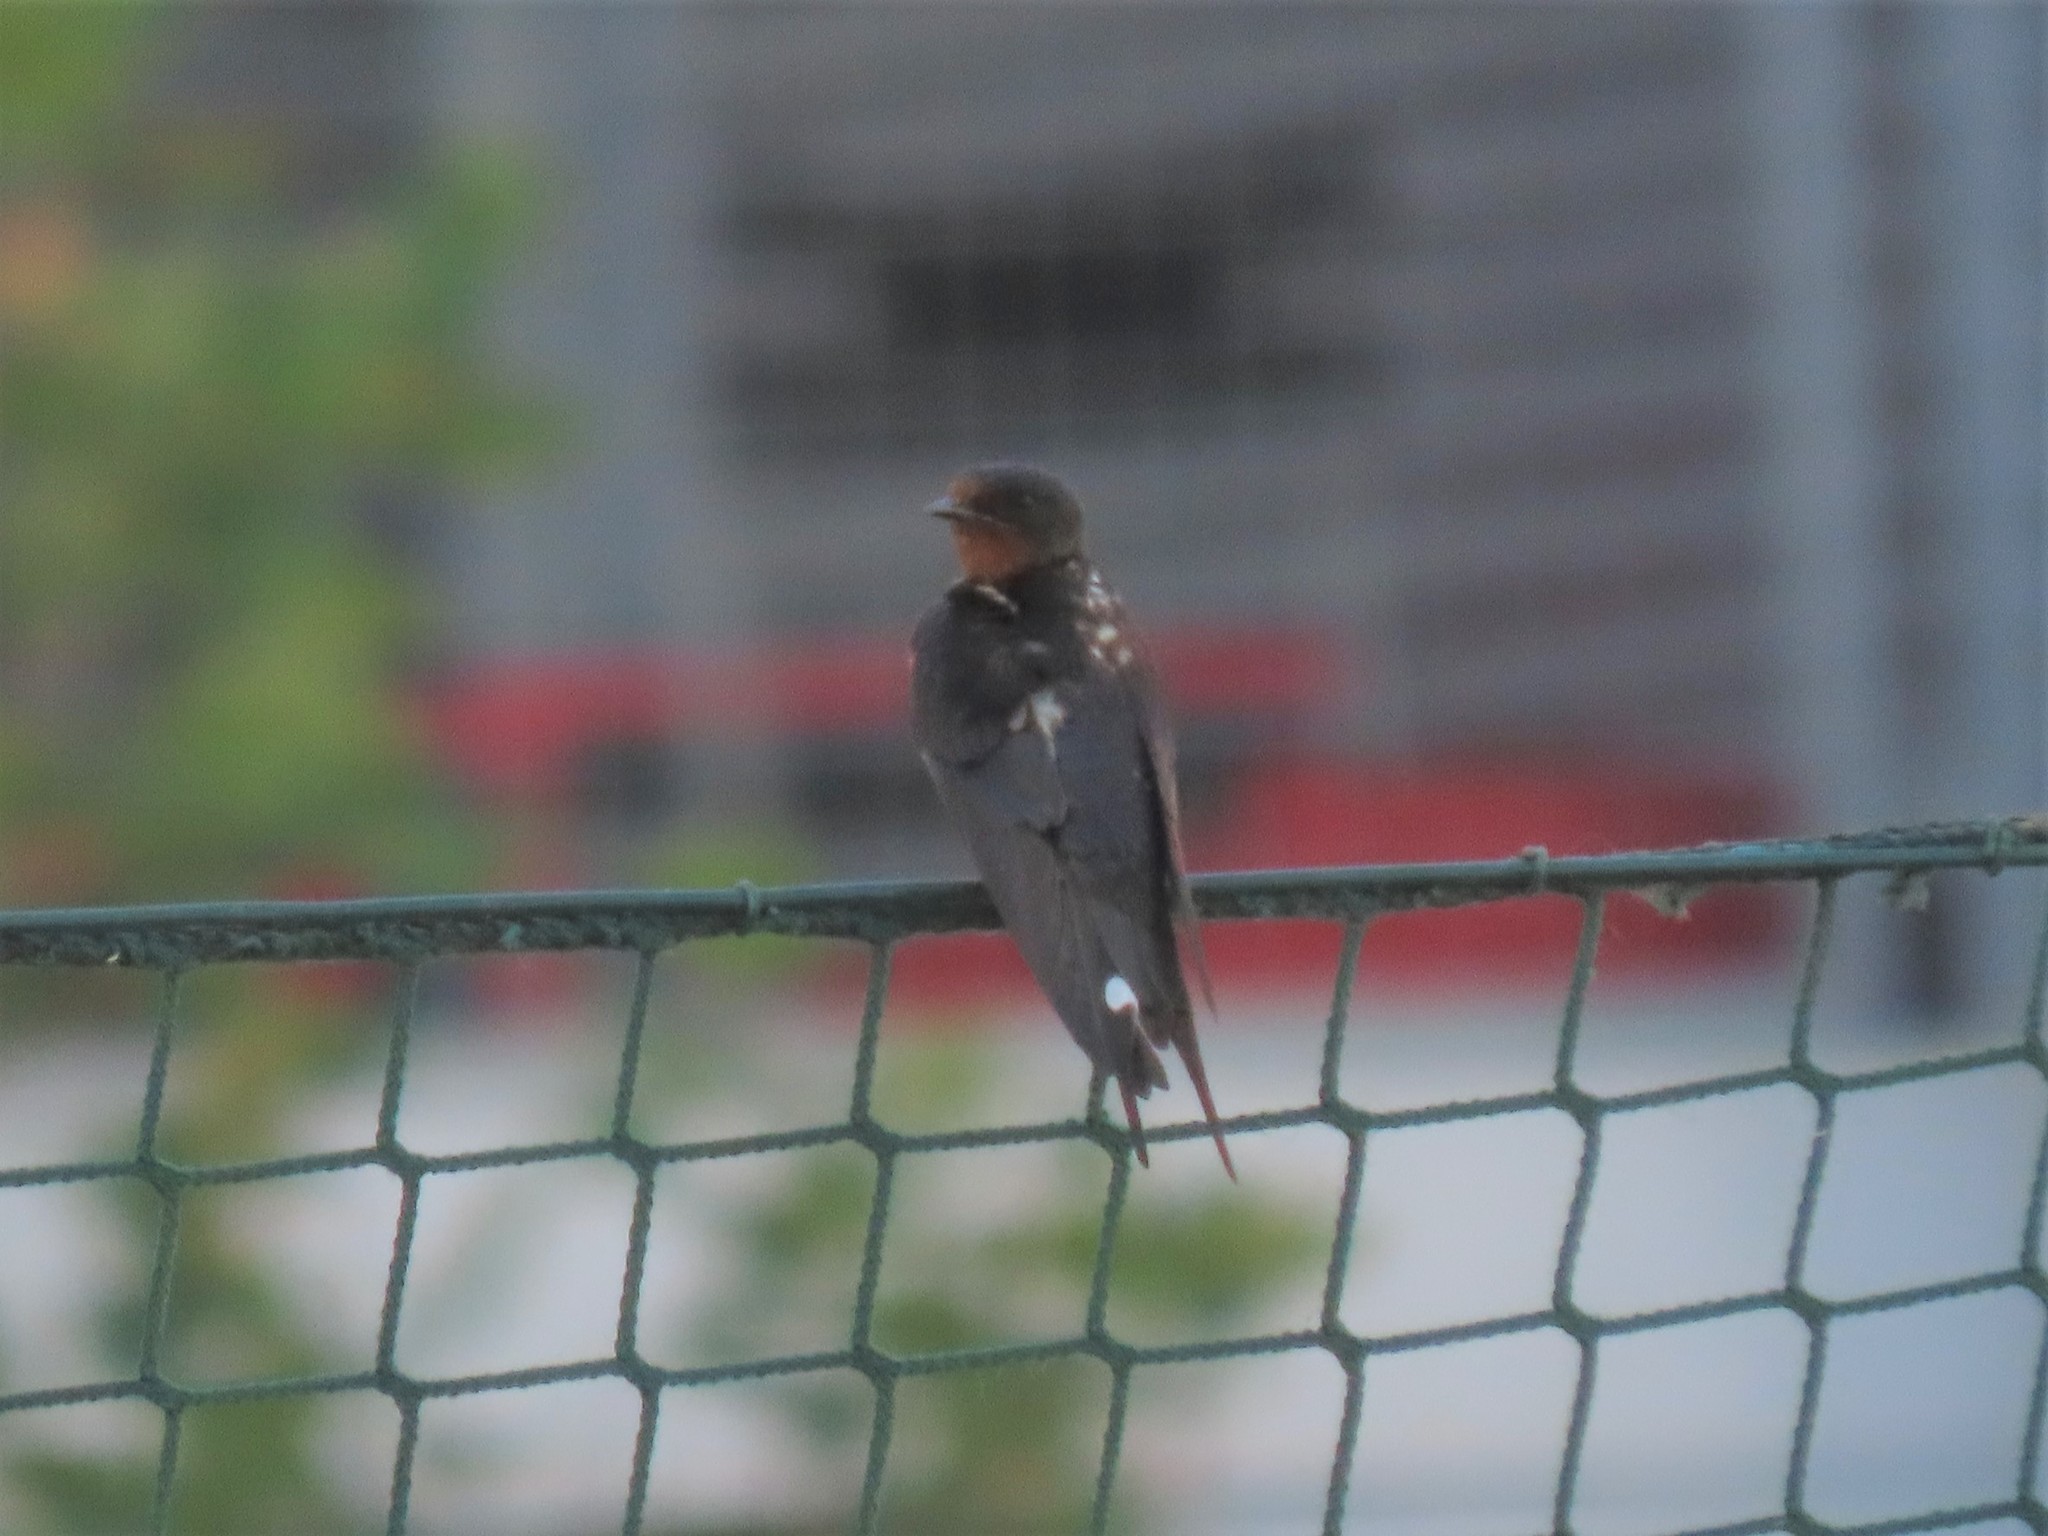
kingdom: Animalia
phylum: Chordata
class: Aves
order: Passeriformes
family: Hirundinidae
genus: Hirundo
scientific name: Hirundo rustica
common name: Barn swallow
